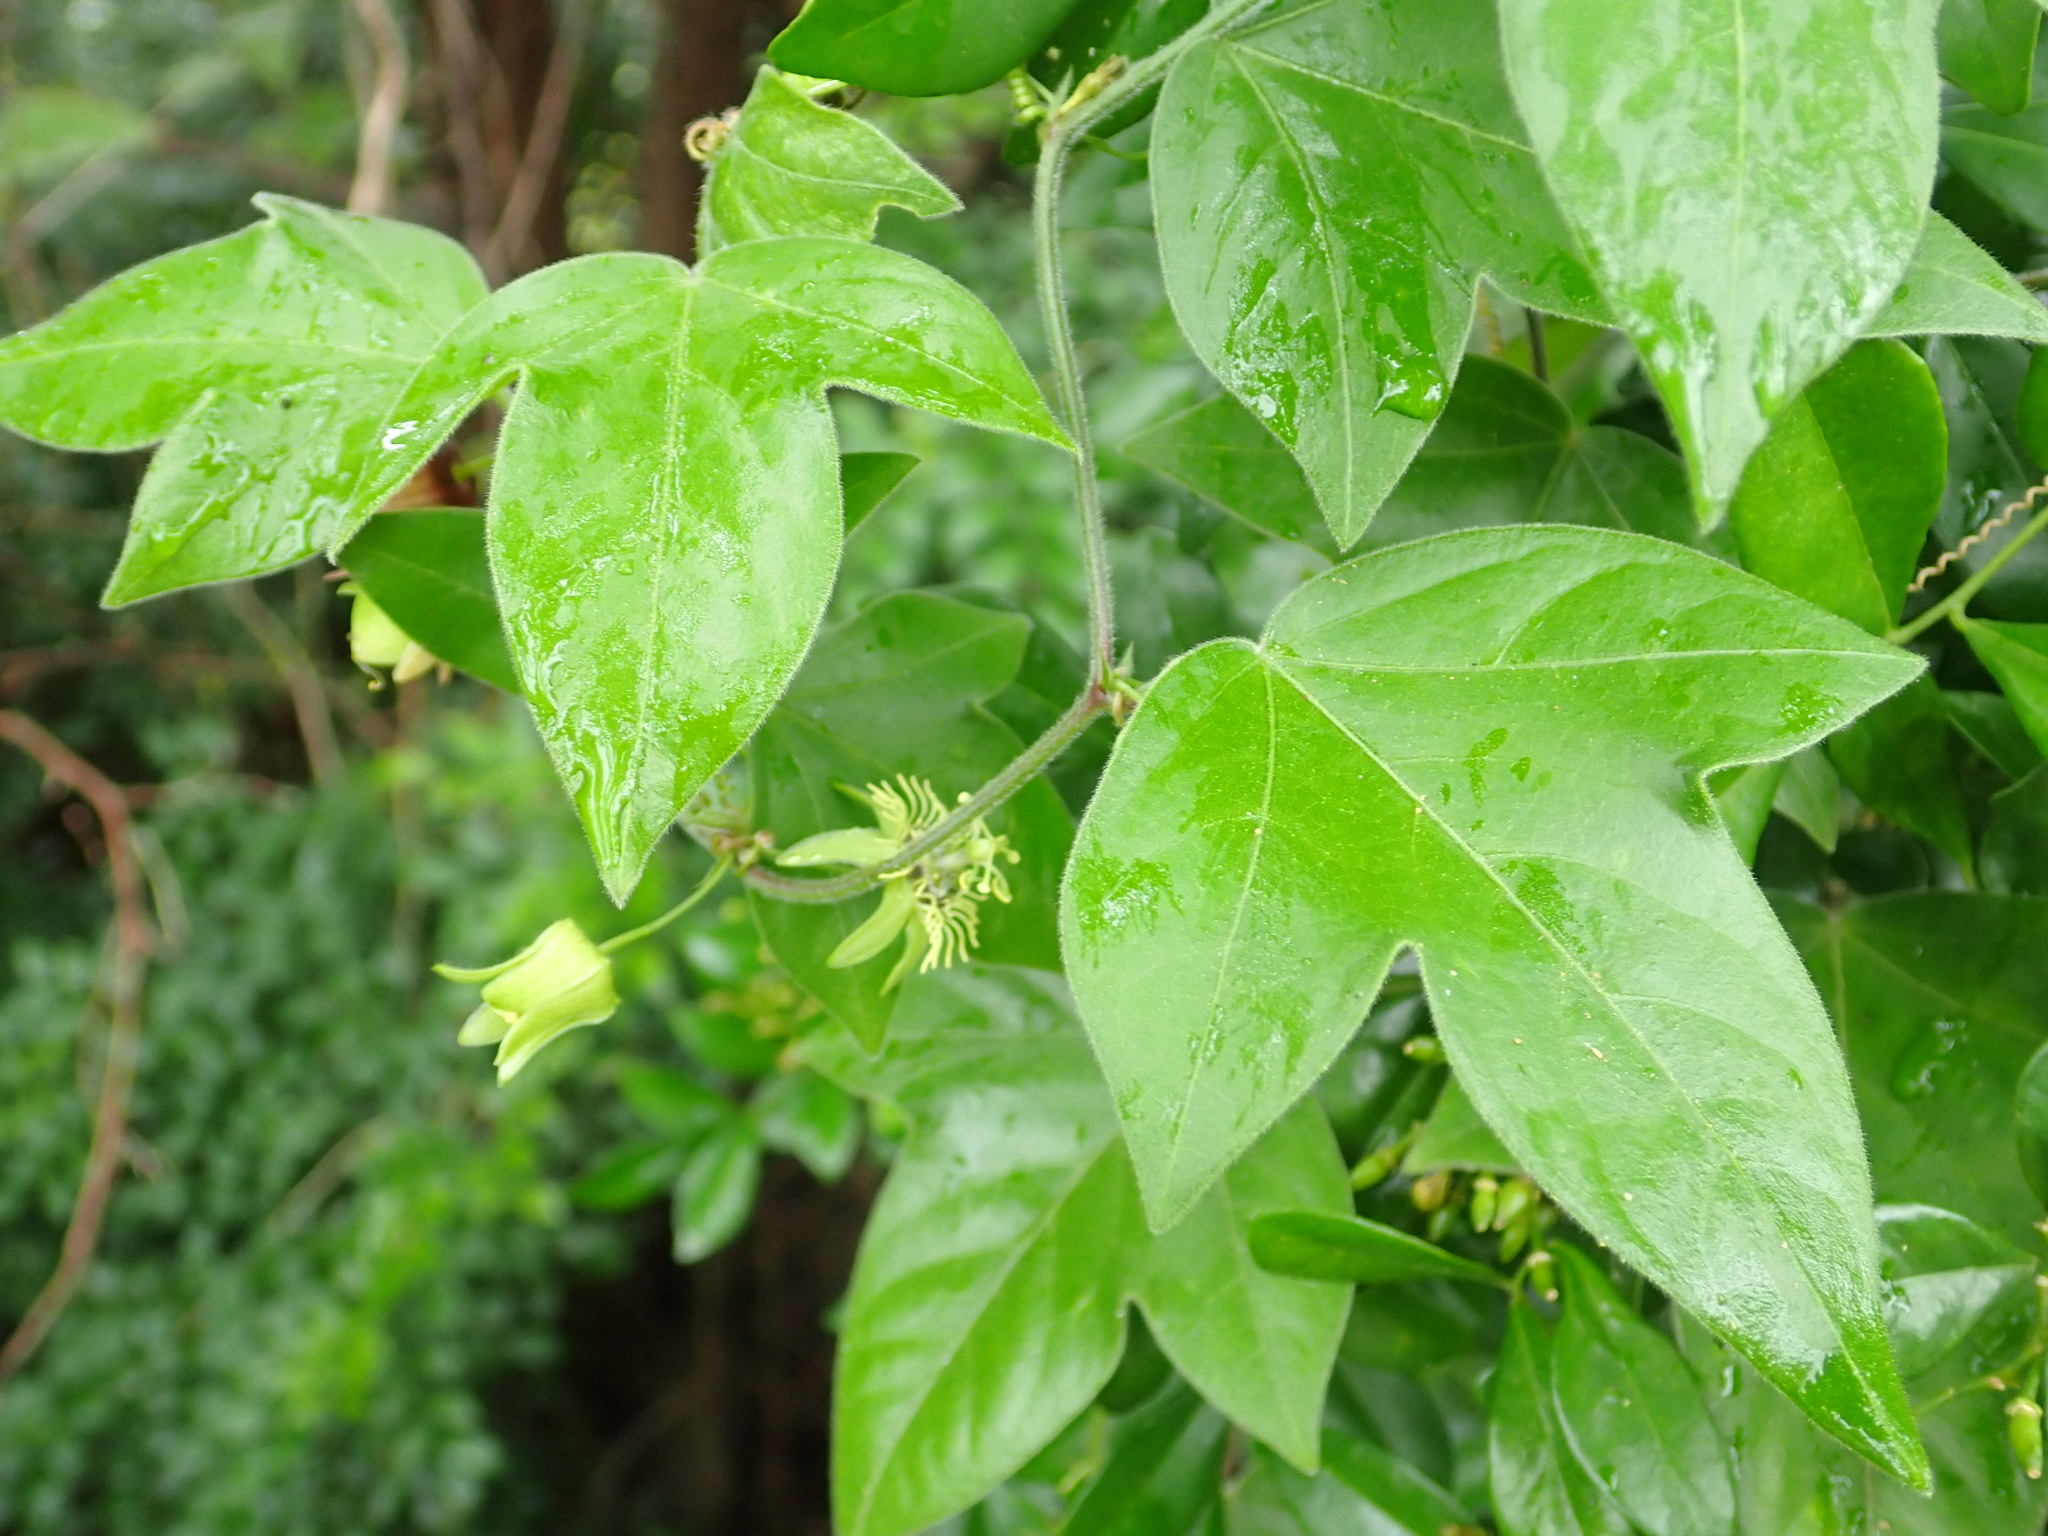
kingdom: Plantae
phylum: Tracheophyta
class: Magnoliopsida
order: Malpighiales
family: Passifloraceae
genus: Passiflora
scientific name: Passiflora suberosa
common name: Wild passionfruit
